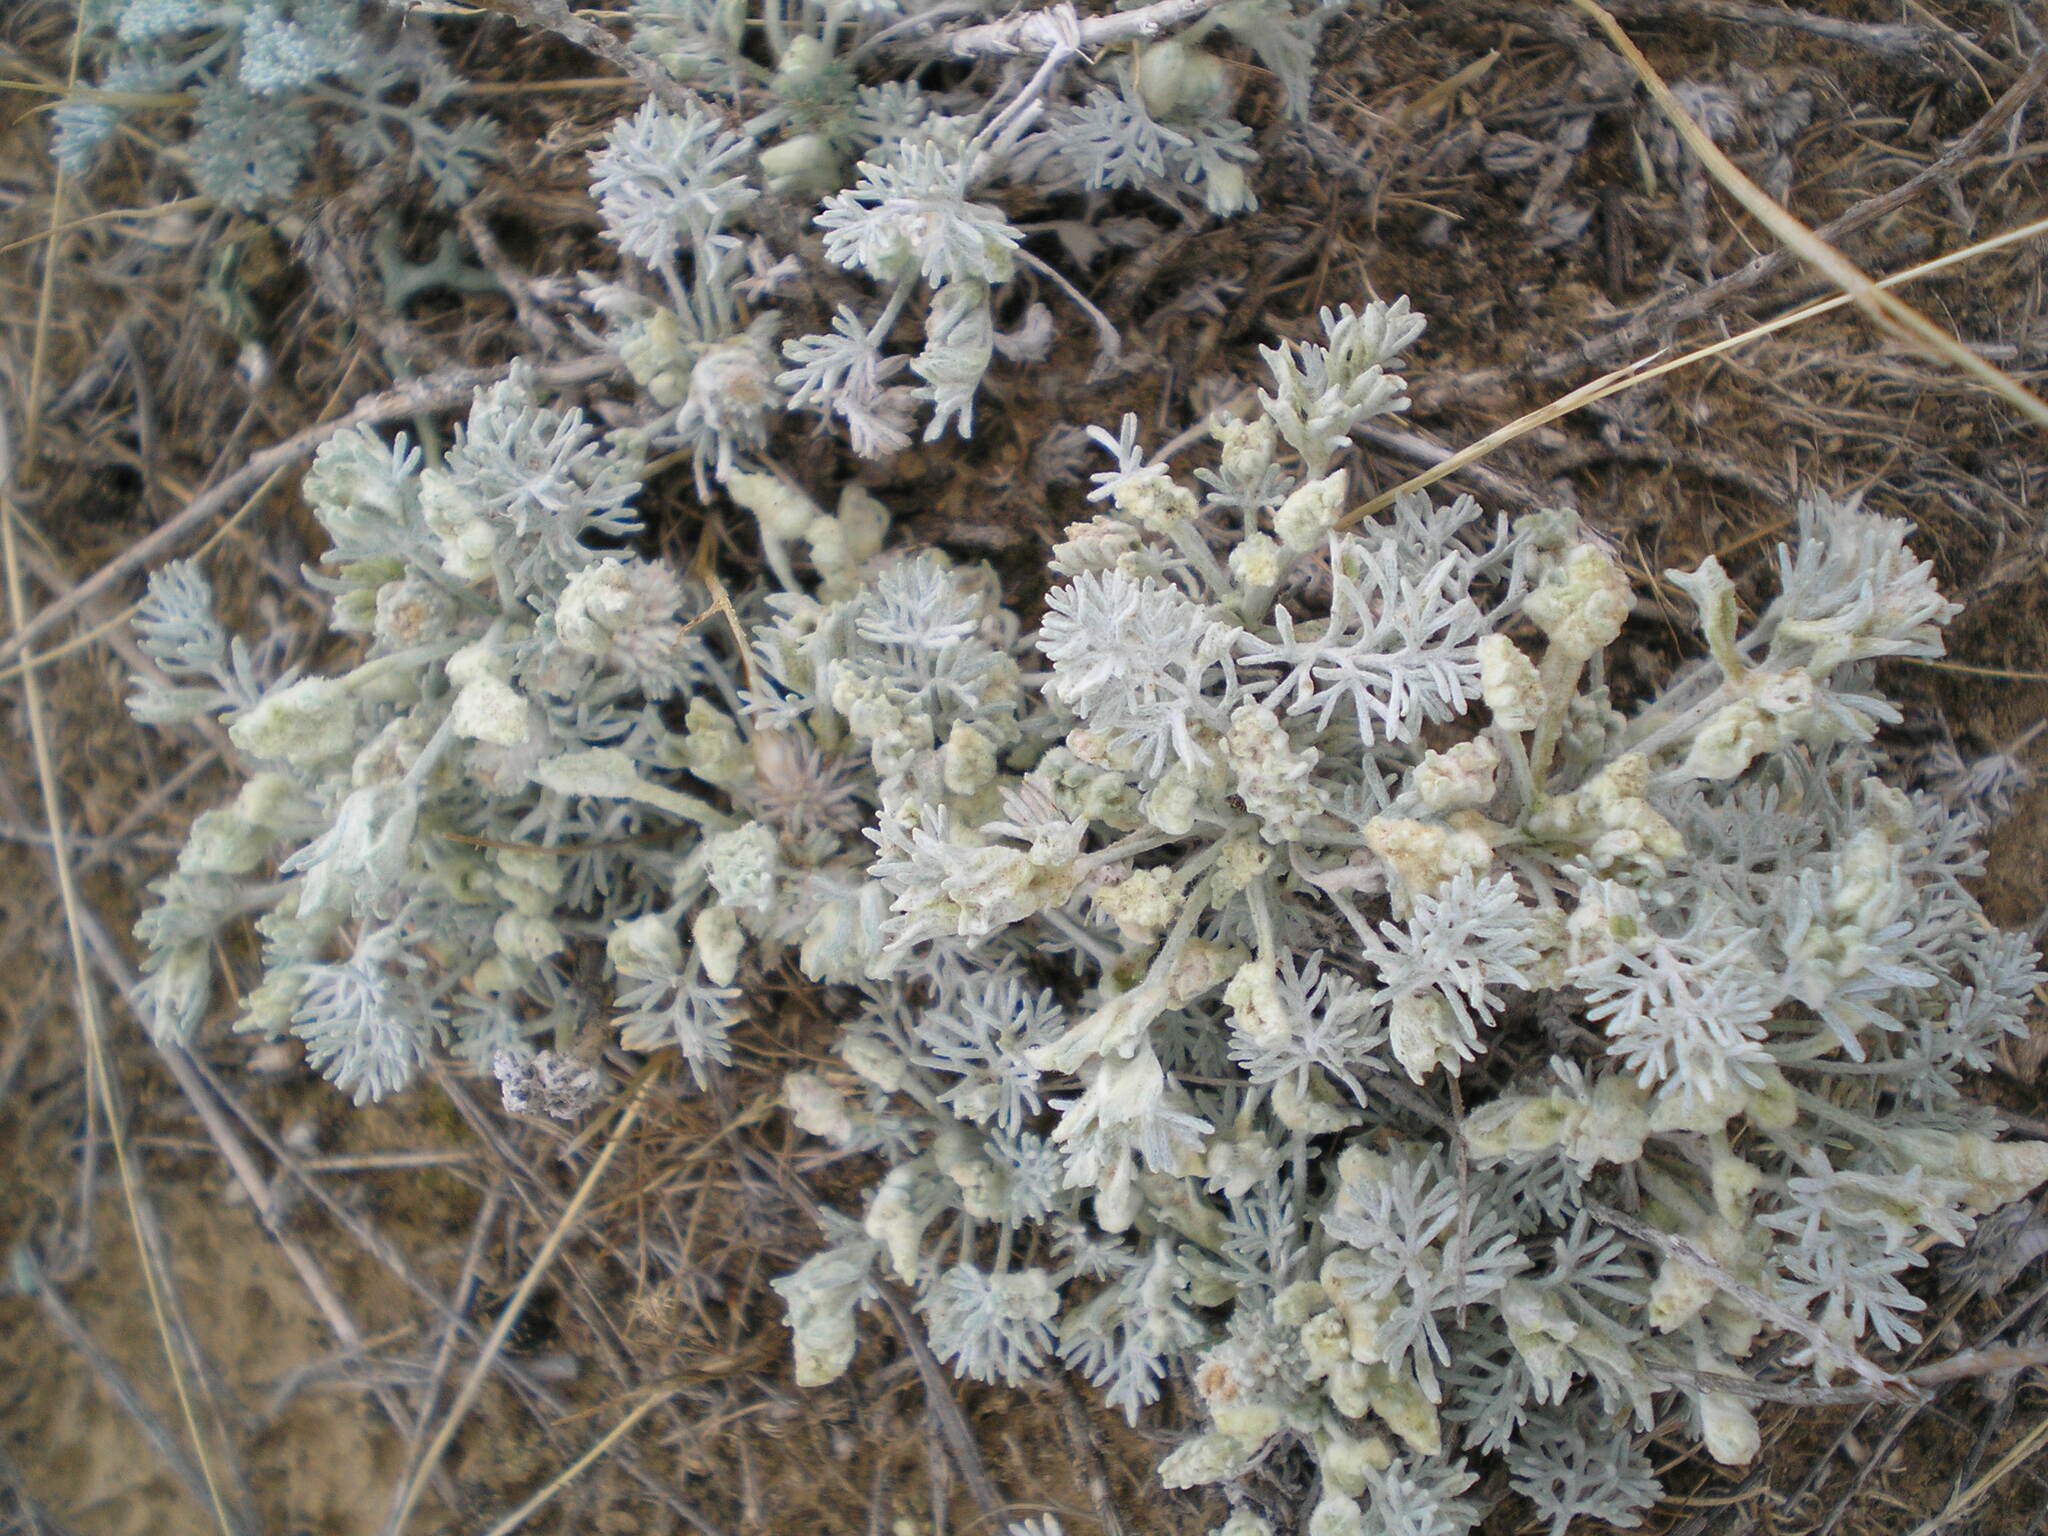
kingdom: Plantae
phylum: Tracheophyta
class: Magnoliopsida
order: Asterales
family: Asteraceae
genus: Artemisia
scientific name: Artemisia fragrans
